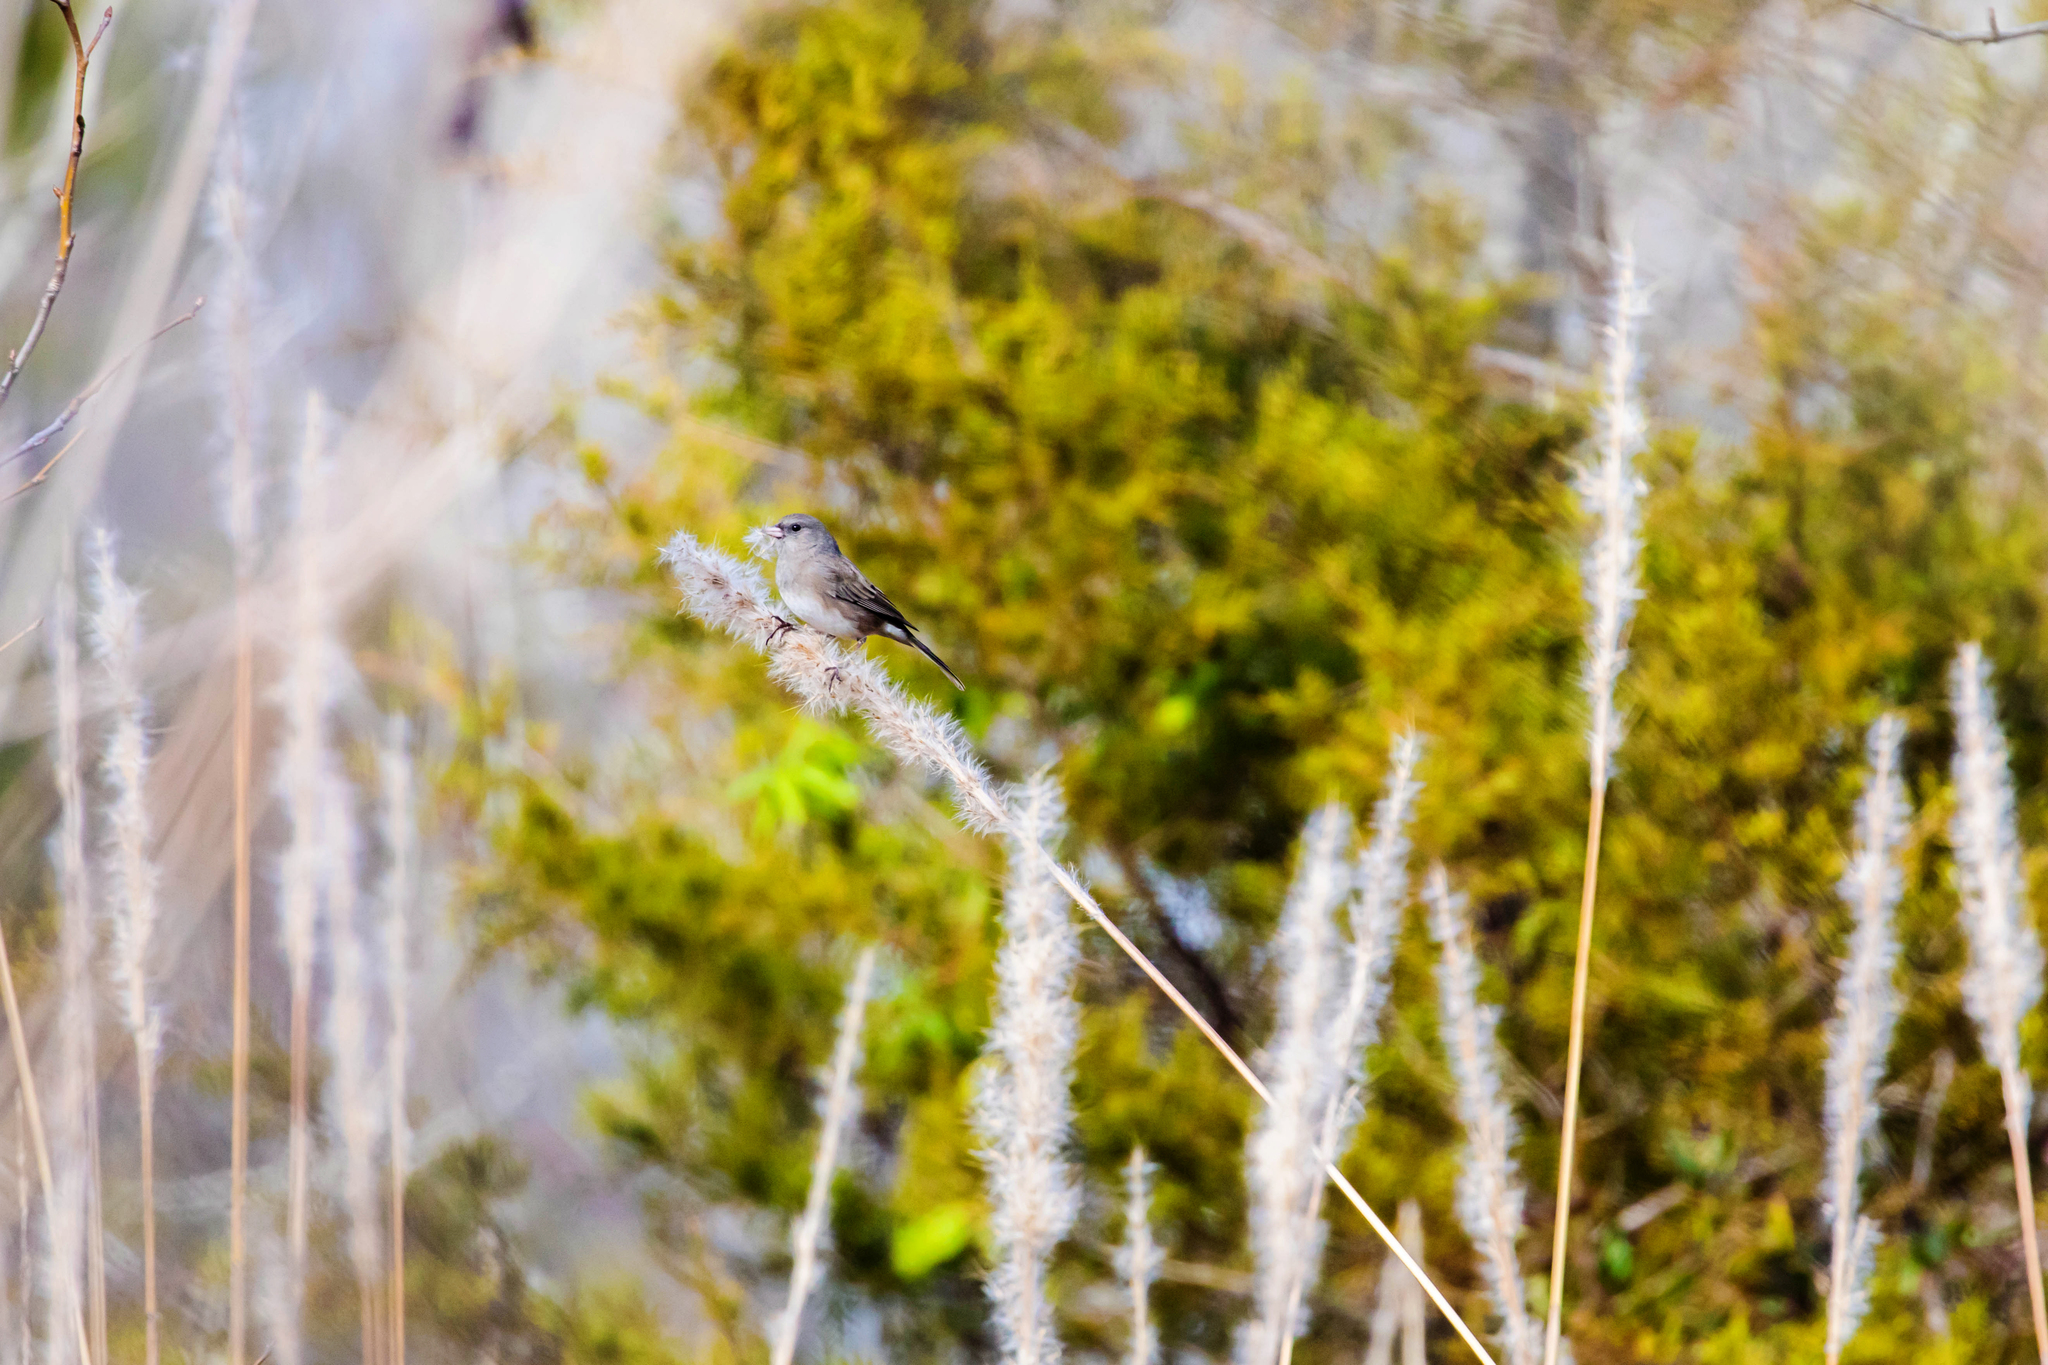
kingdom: Animalia
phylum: Chordata
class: Aves
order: Passeriformes
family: Passerellidae
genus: Junco
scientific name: Junco hyemalis
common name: Dark-eyed junco
